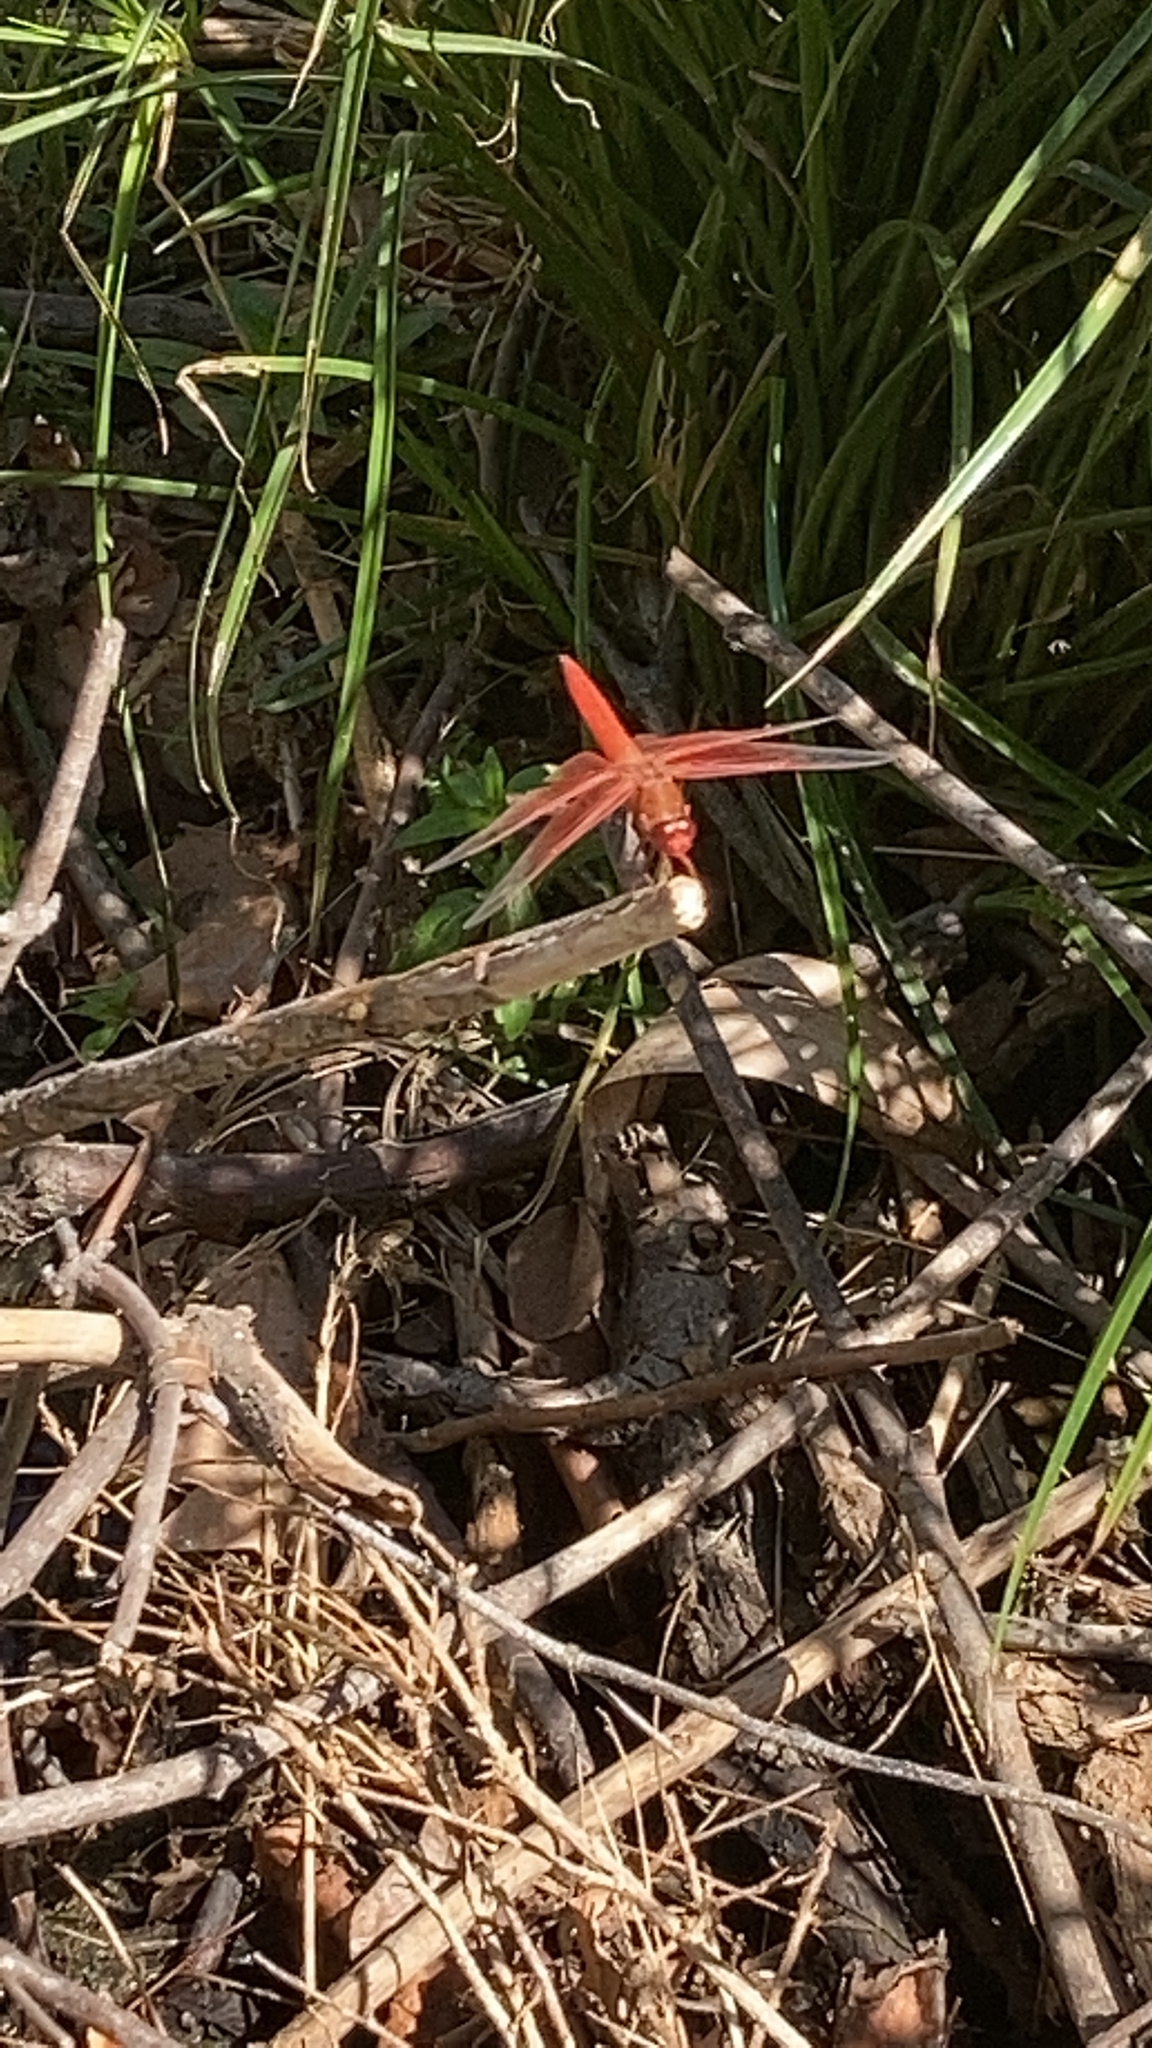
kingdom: Animalia
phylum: Arthropoda
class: Insecta
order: Odonata
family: Libellulidae
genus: Libellula
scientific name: Libellula saturata
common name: Flame skimmer
